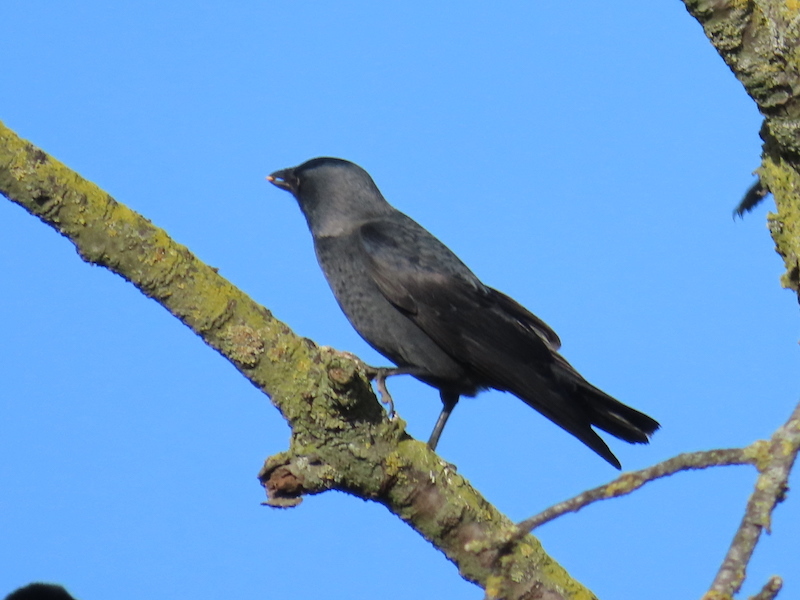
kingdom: Animalia
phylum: Chordata
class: Aves
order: Passeriformes
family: Corvidae
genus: Coloeus
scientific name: Coloeus monedula
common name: Western jackdaw
